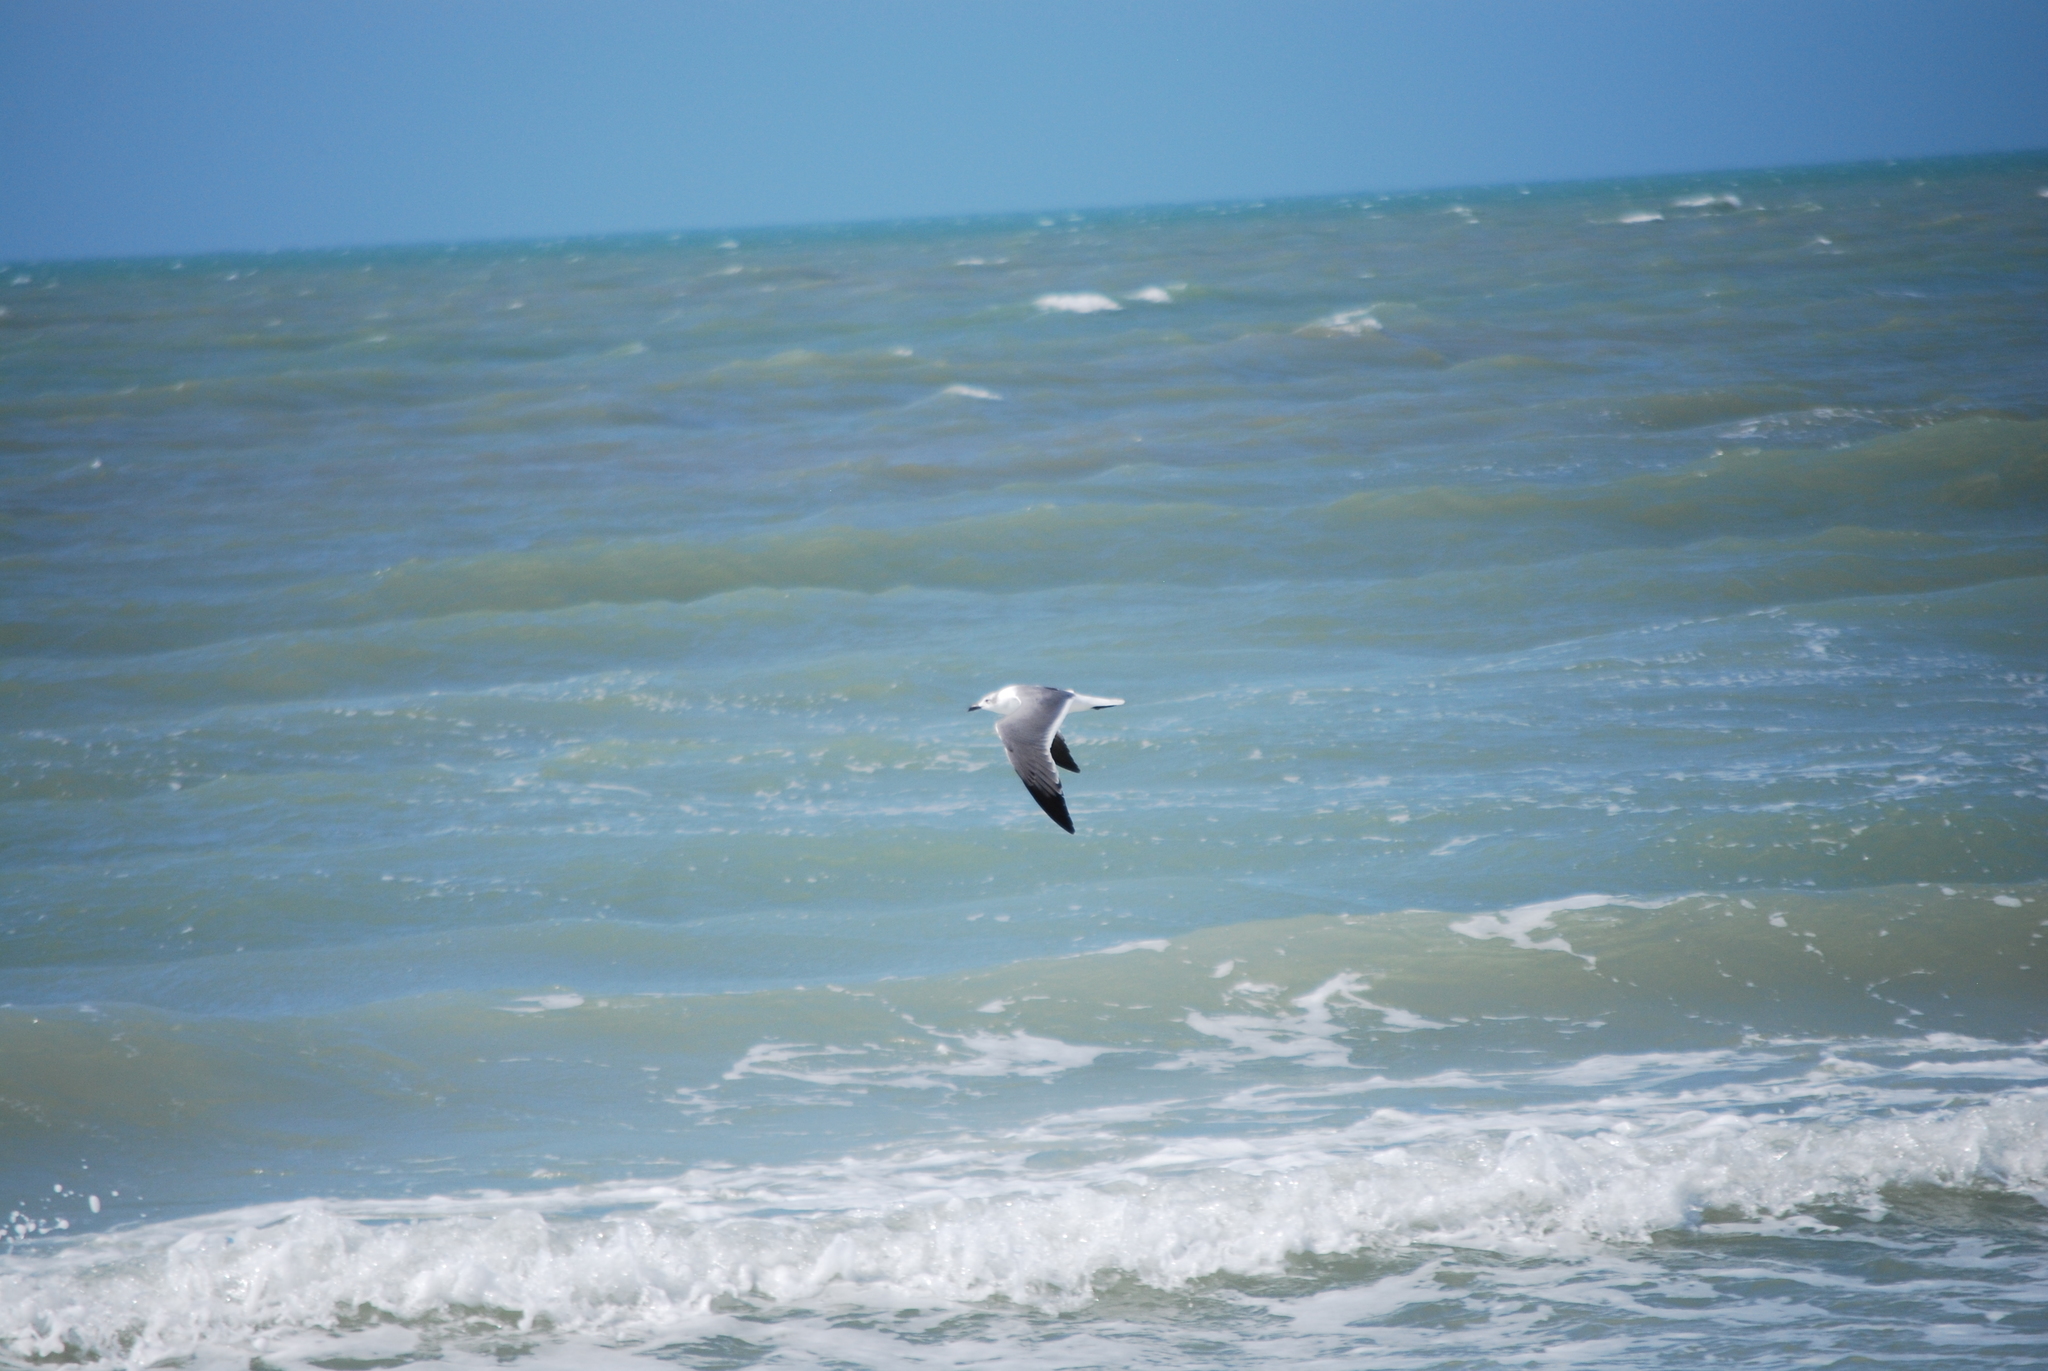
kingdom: Animalia
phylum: Chordata
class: Aves
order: Charadriiformes
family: Laridae
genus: Leucophaeus
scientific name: Leucophaeus atricilla
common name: Laughing gull
